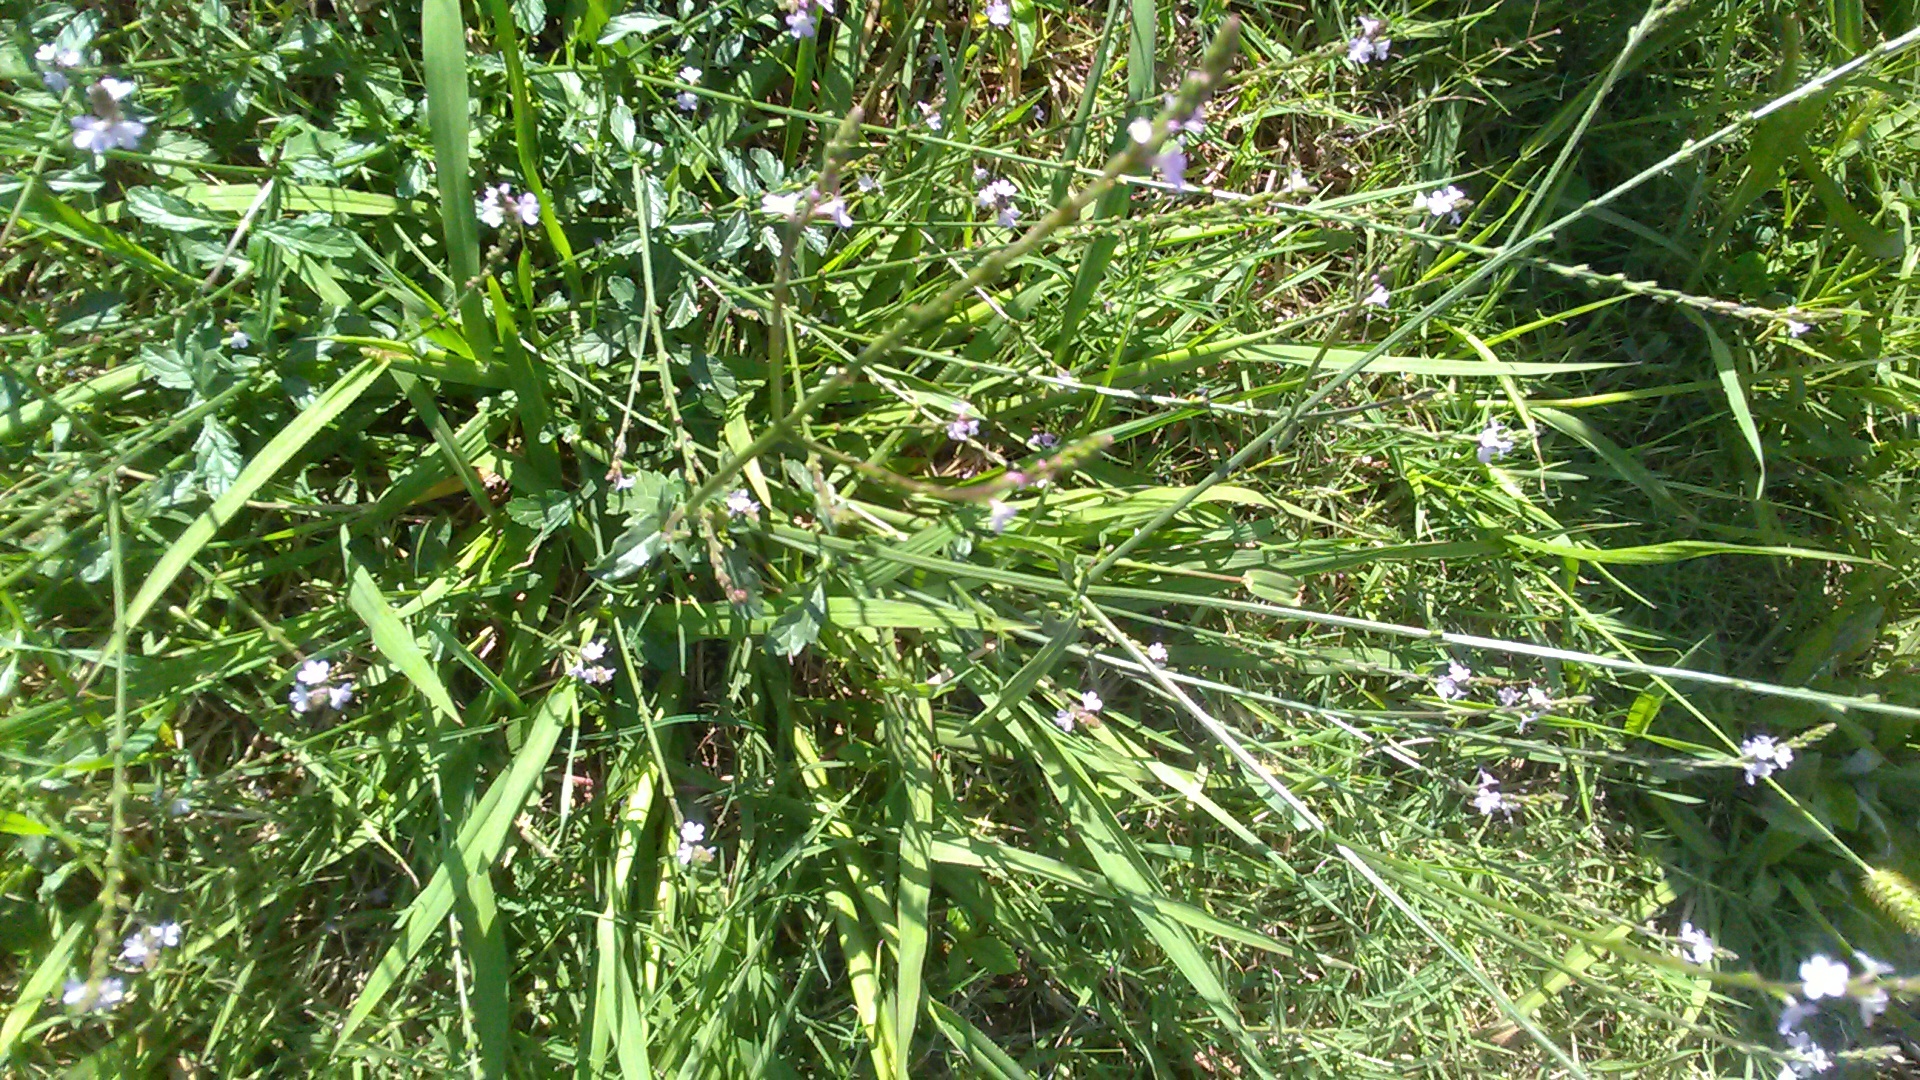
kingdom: Plantae
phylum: Tracheophyta
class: Magnoliopsida
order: Lamiales
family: Verbenaceae
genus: Verbena
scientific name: Verbena officinalis
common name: Vervain
